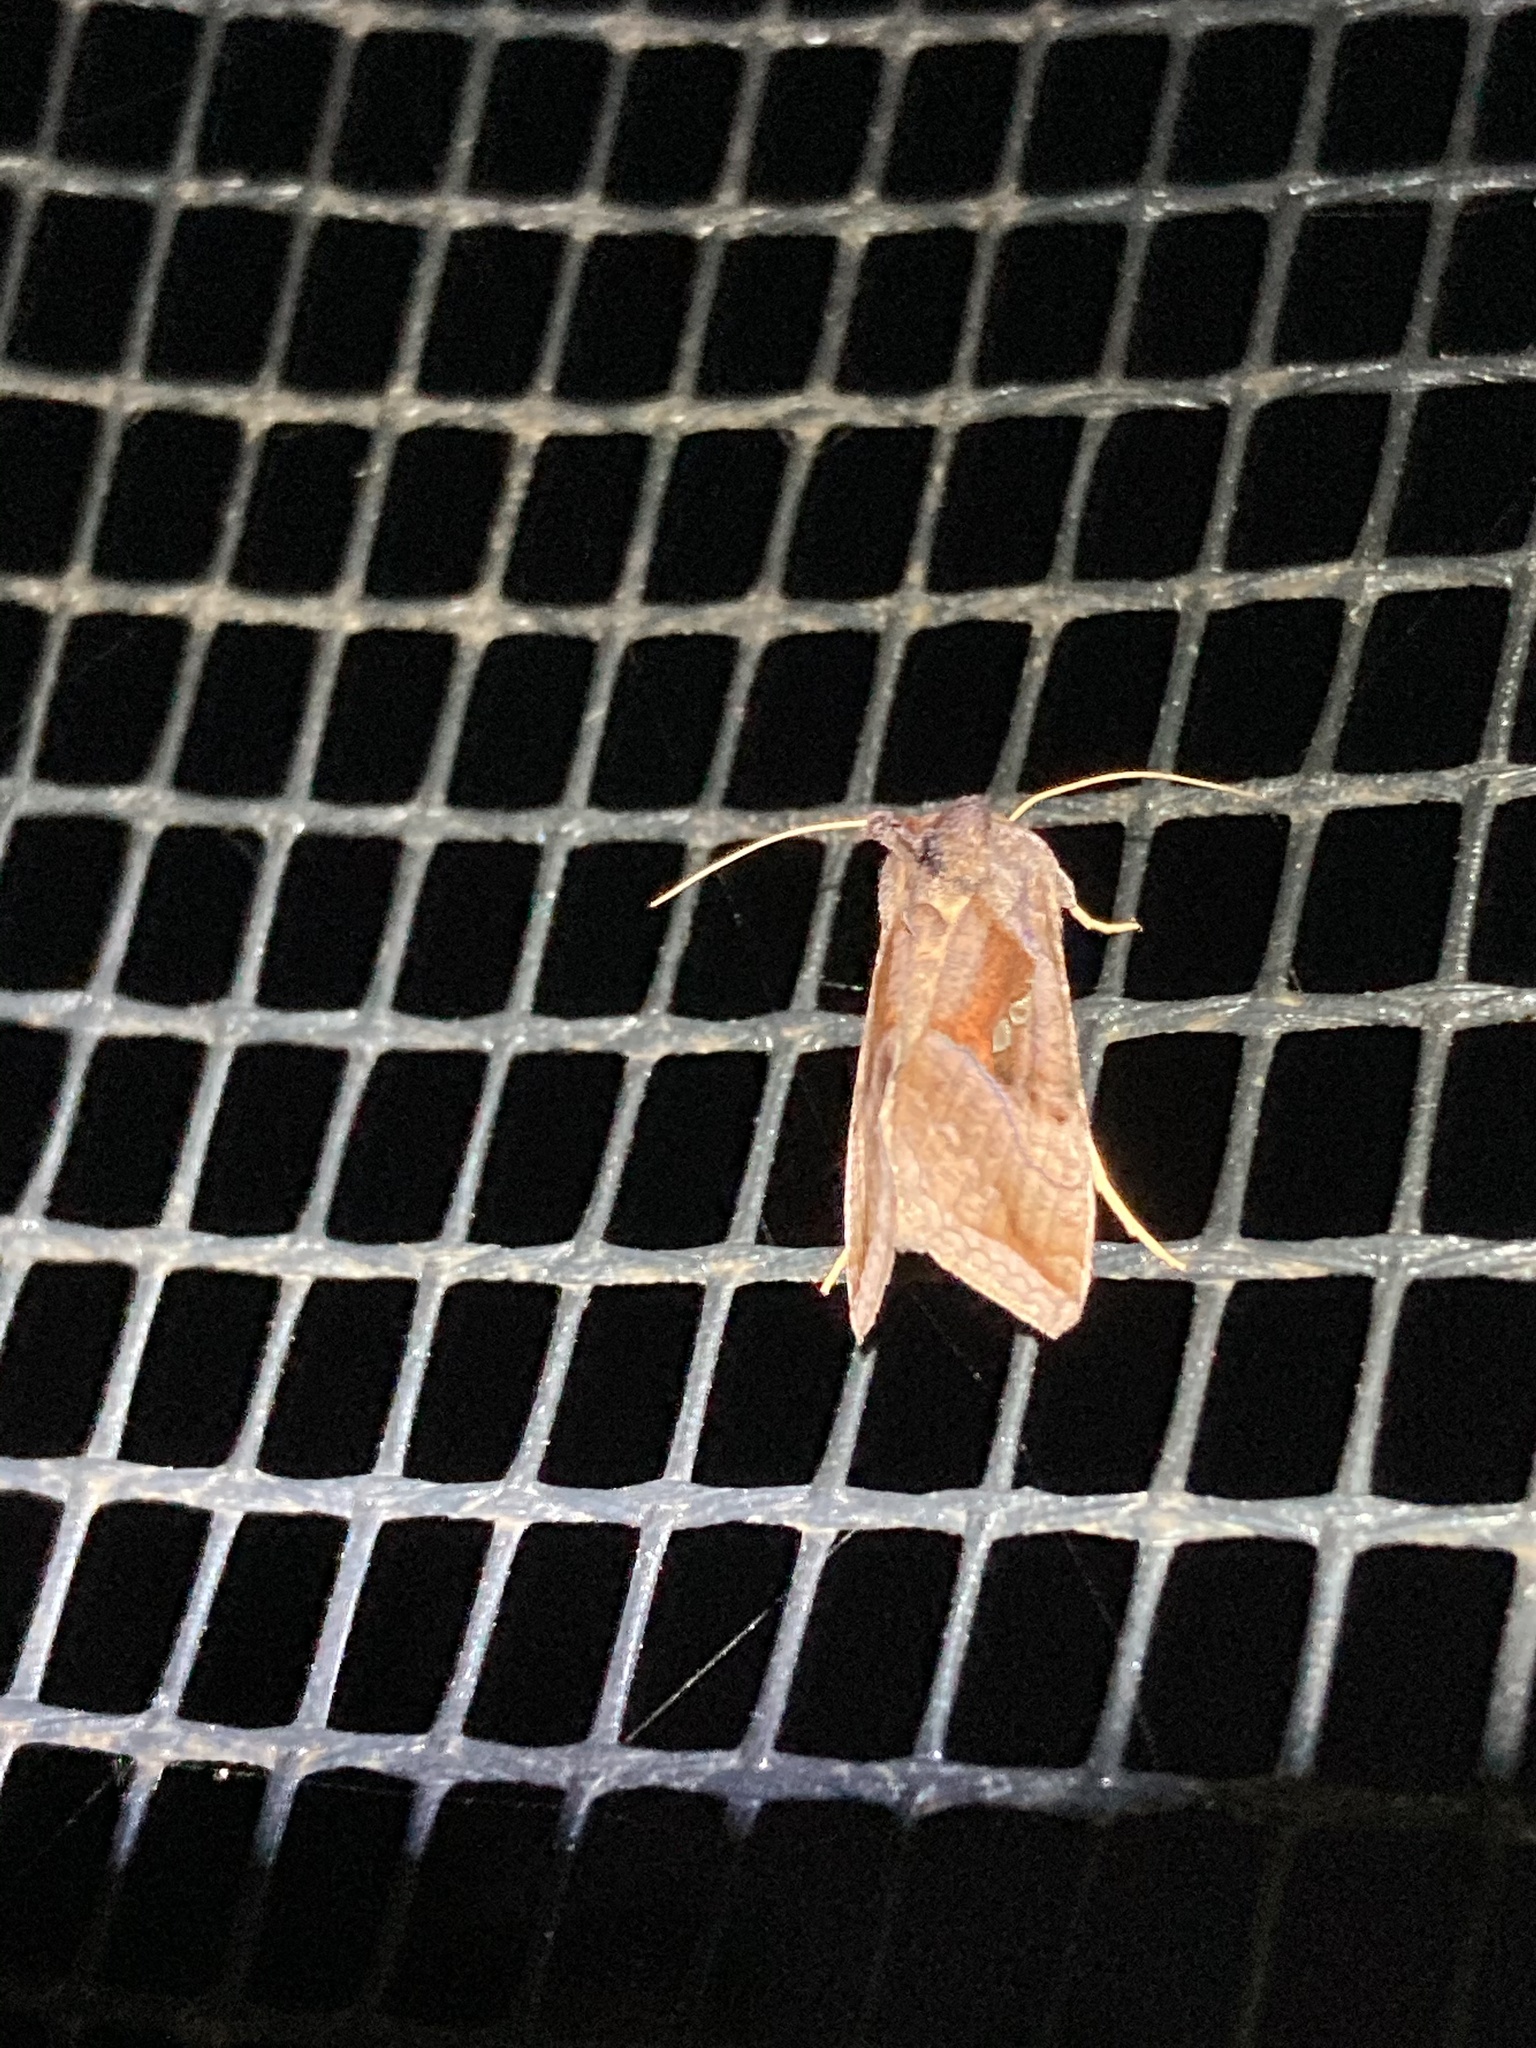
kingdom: Animalia
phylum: Arthropoda
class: Insecta
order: Lepidoptera
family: Noctuidae
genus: Enigmogramma
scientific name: Enigmogramma basigera
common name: Pink-washed looper moth
